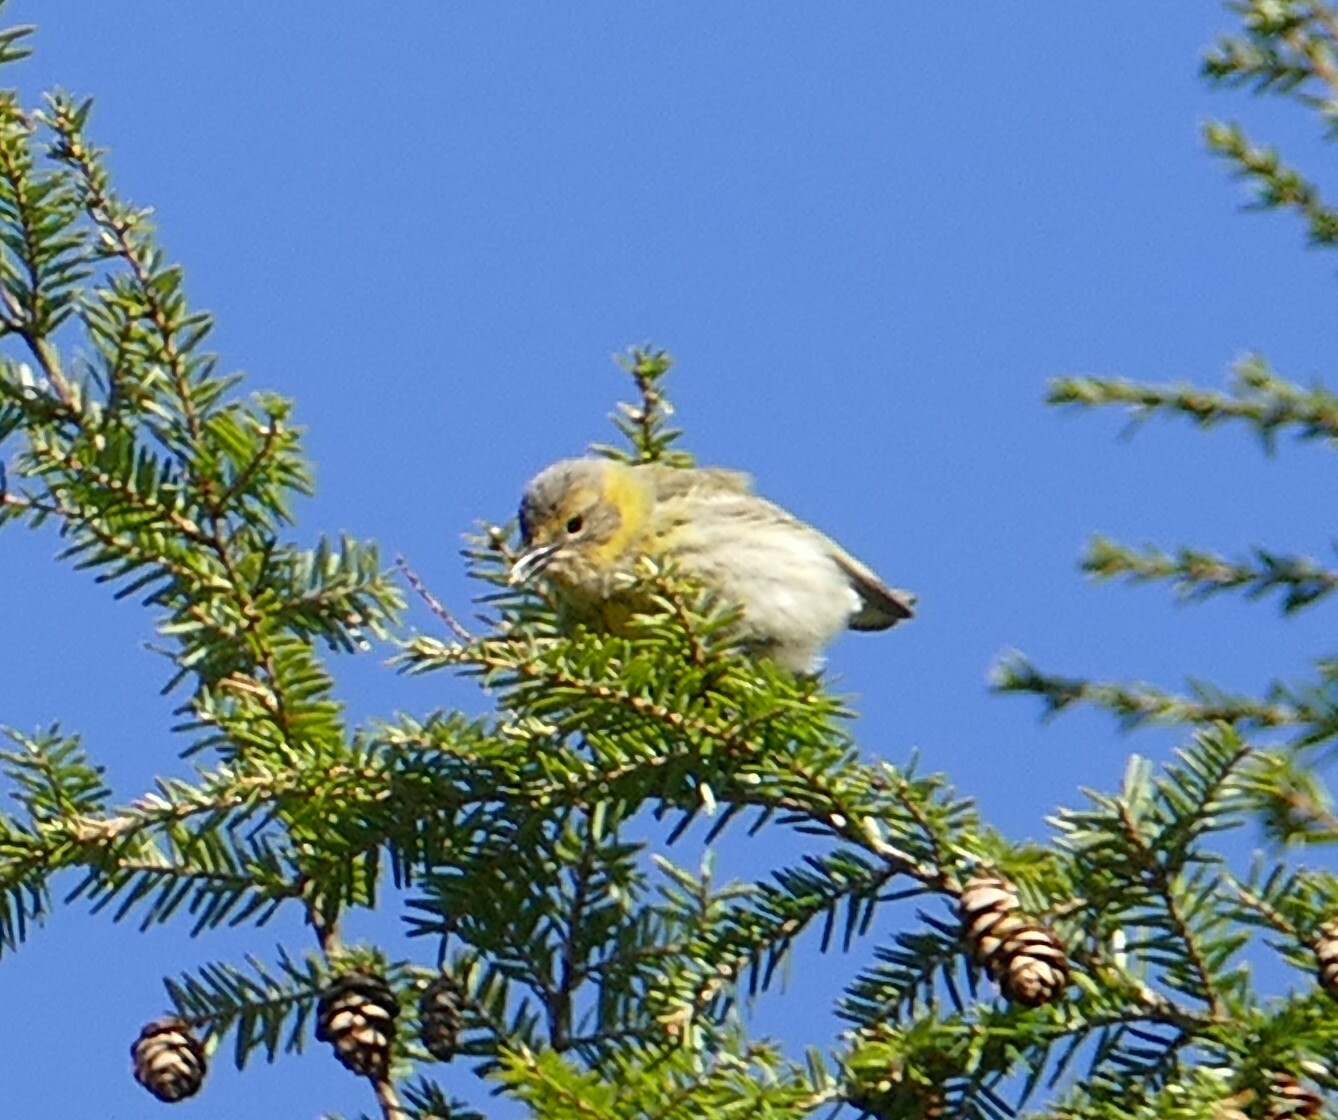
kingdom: Animalia
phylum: Chordata
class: Aves
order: Passeriformes
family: Parulidae
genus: Setophaga
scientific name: Setophaga tigrina
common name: Cape may warbler
